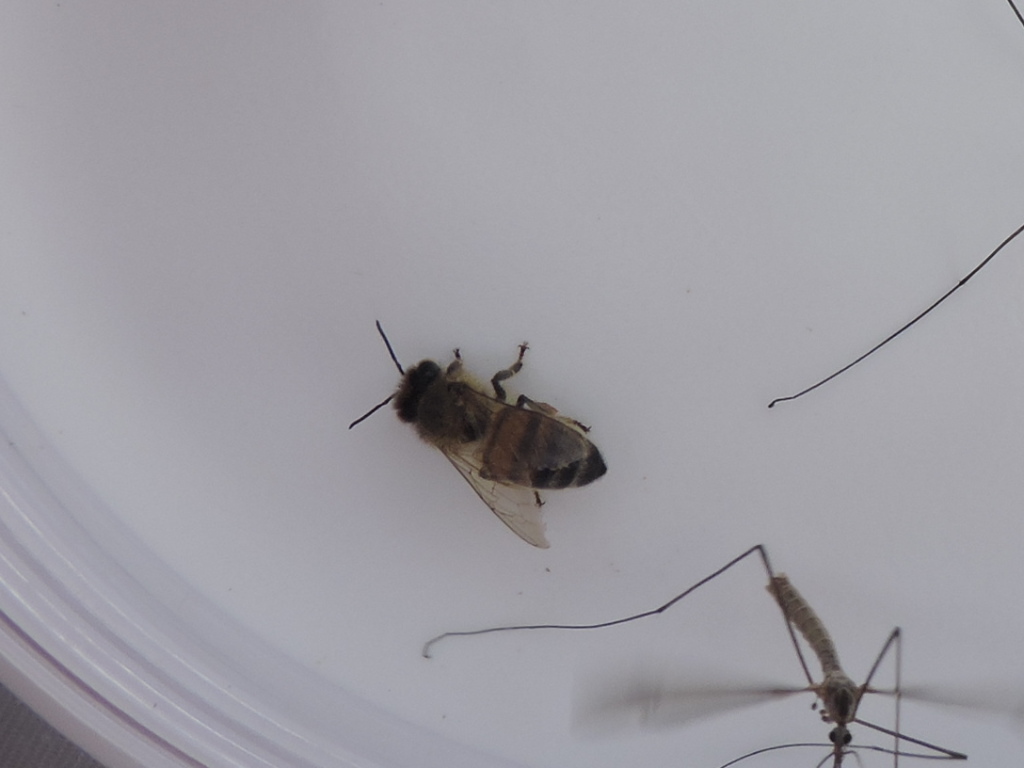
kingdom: Animalia
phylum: Arthropoda
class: Insecta
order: Hymenoptera
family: Apidae
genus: Apis
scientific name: Apis mellifera
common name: Honey bee
